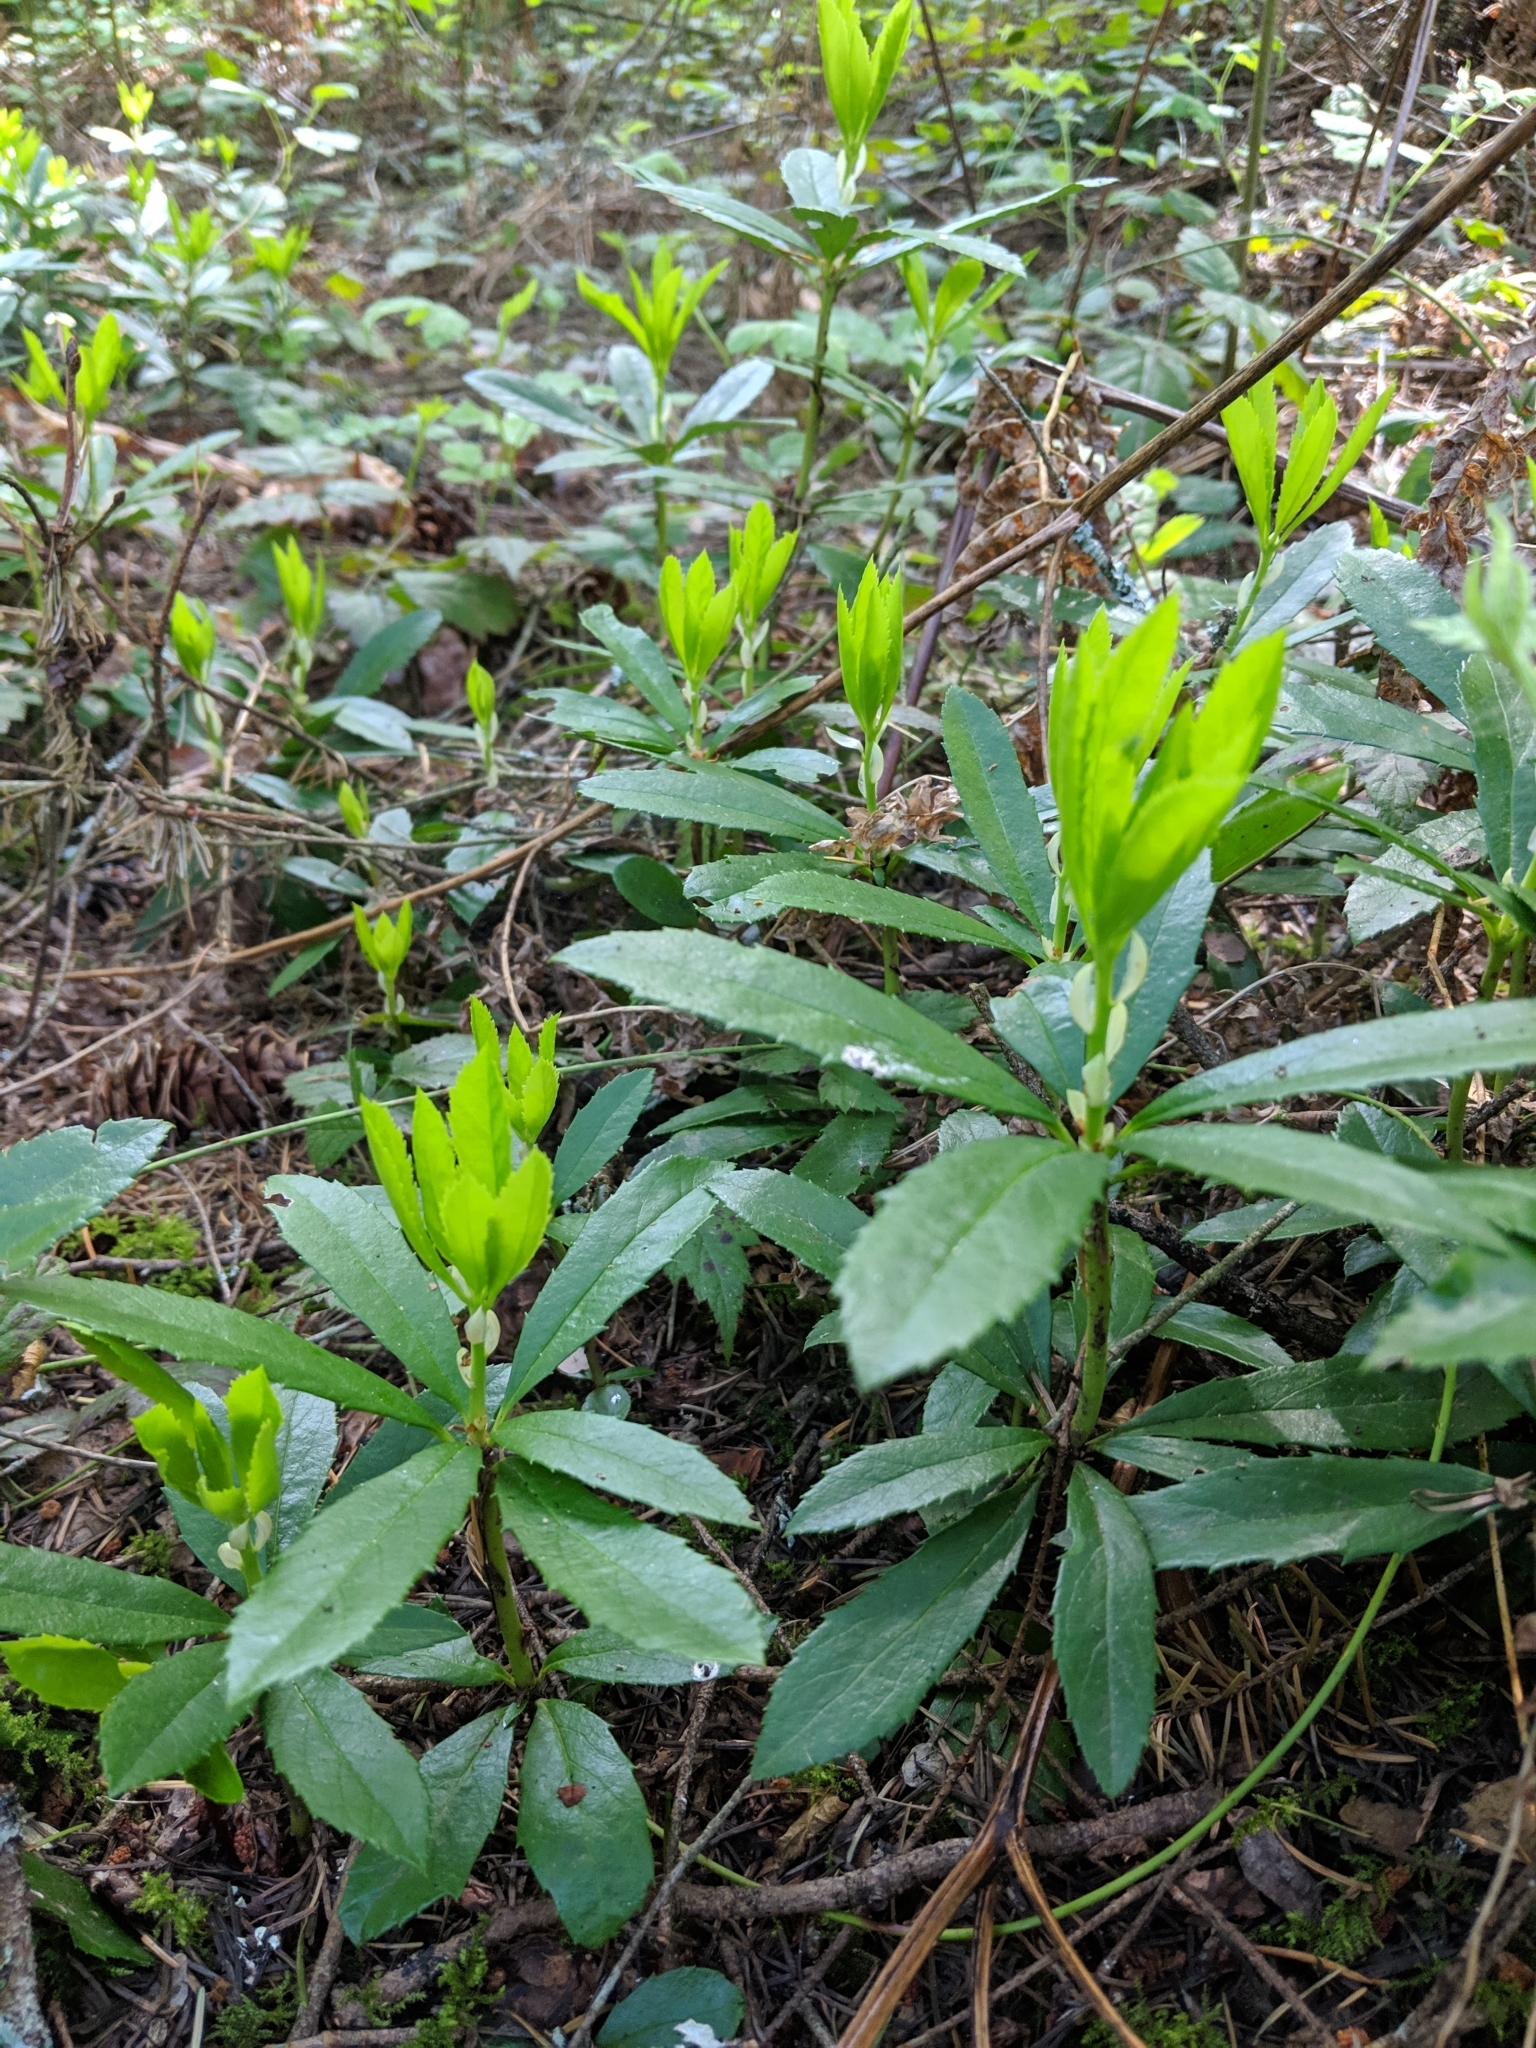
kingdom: Plantae
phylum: Tracheophyta
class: Magnoliopsida
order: Ericales
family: Ericaceae
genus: Chimaphila
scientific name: Chimaphila umbellata
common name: Pipsissewa
